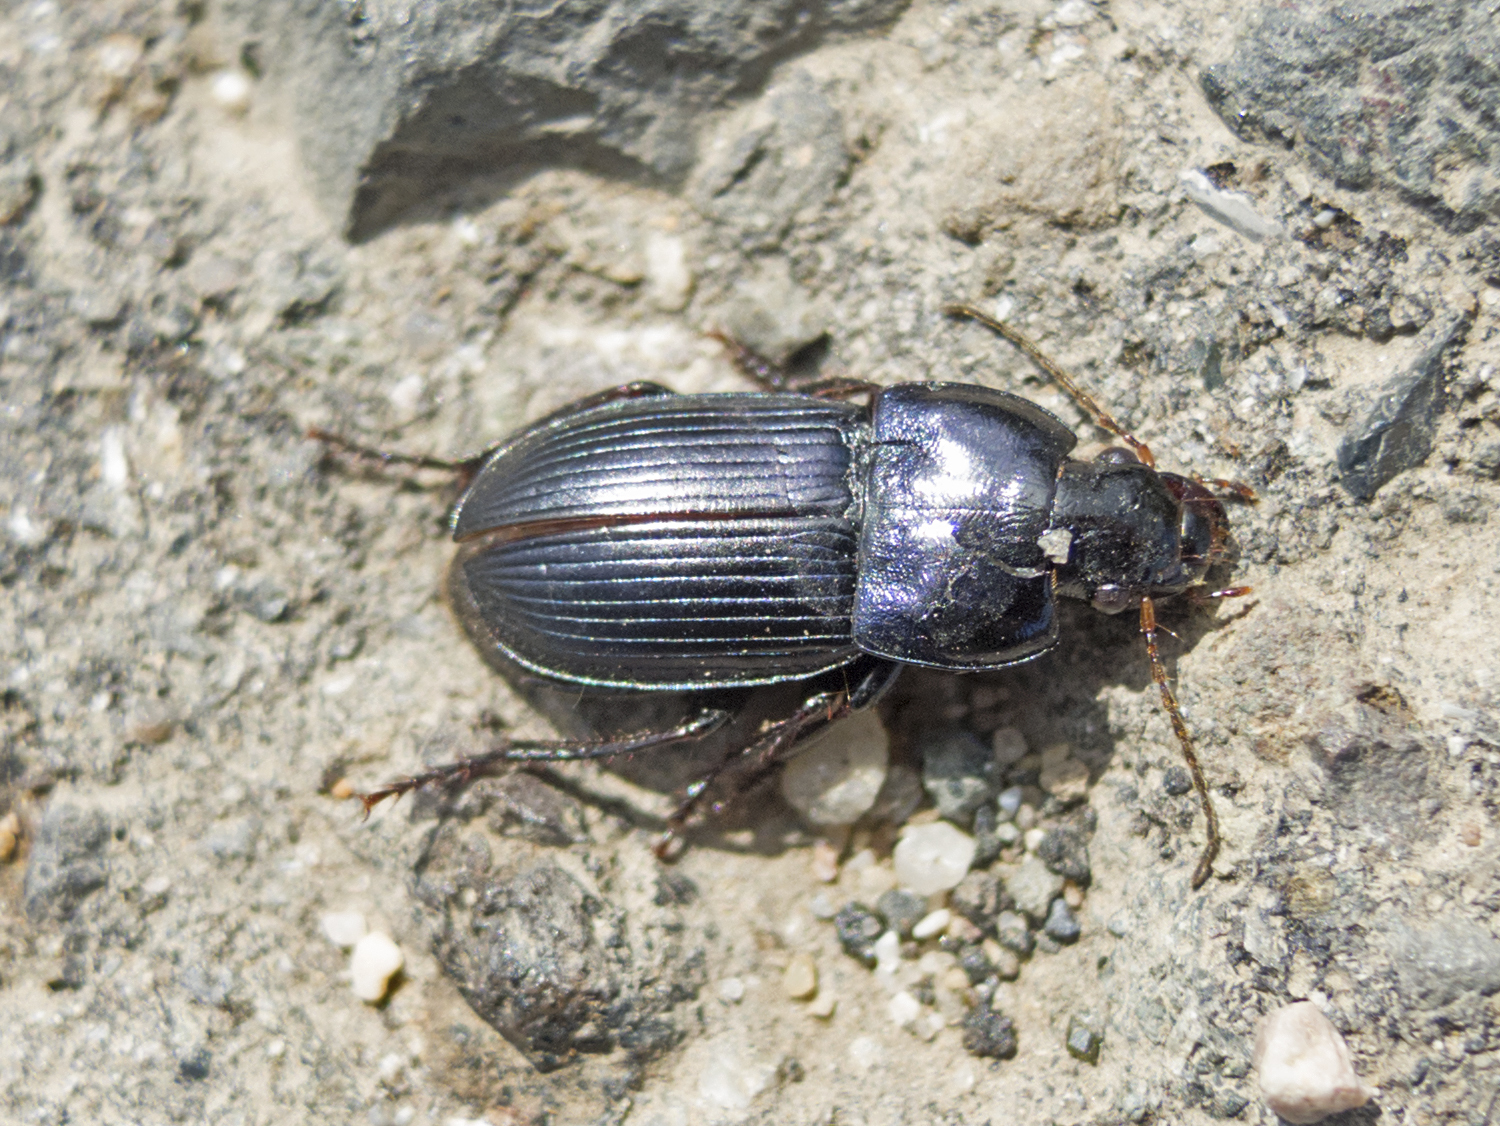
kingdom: Animalia
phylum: Arthropoda
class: Insecta
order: Coleoptera
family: Carabidae
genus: Harpalus
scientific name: Harpalus dimidiatus
